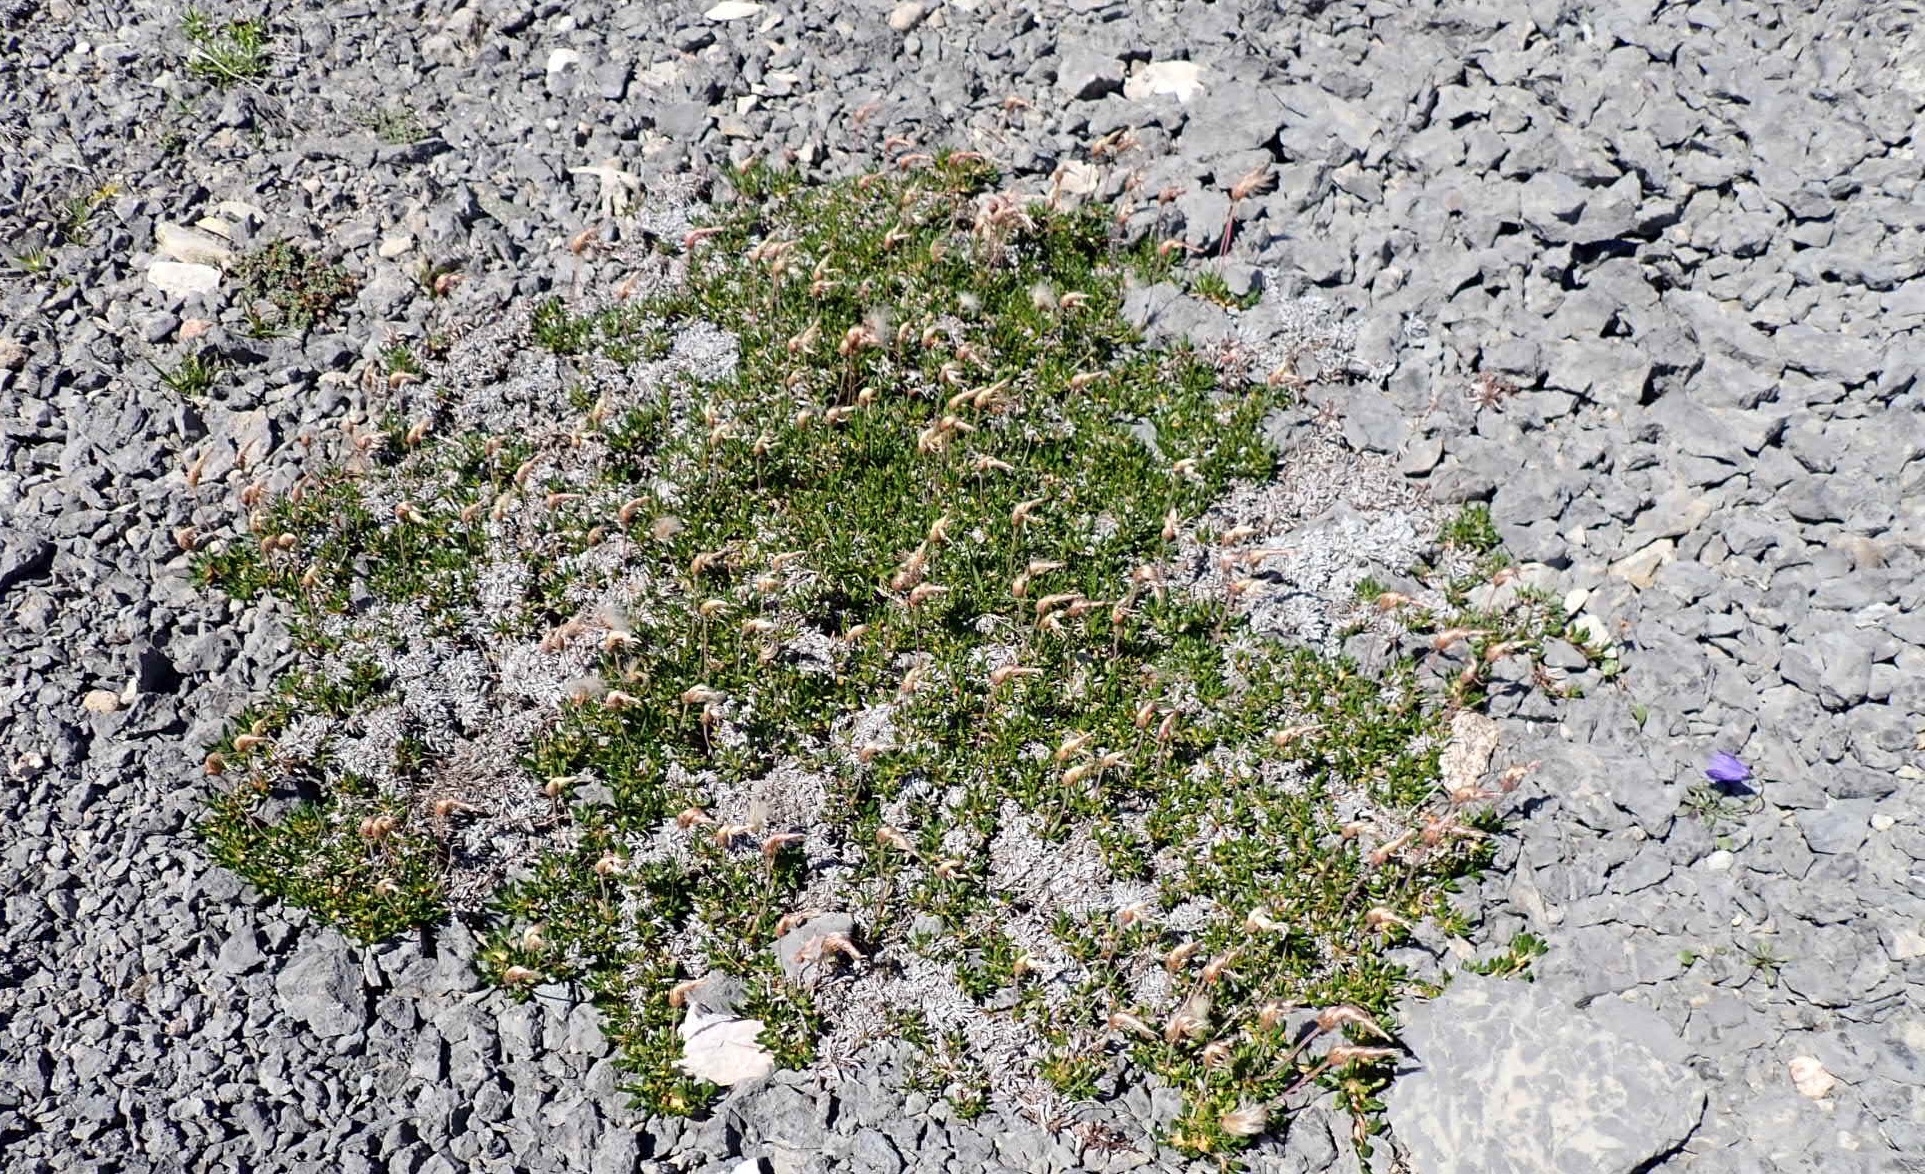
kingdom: Plantae
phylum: Tracheophyta
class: Magnoliopsida
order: Rosales
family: Rosaceae
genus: Dryas
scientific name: Dryas integrifolia
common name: Entire-leaved mountain avens
